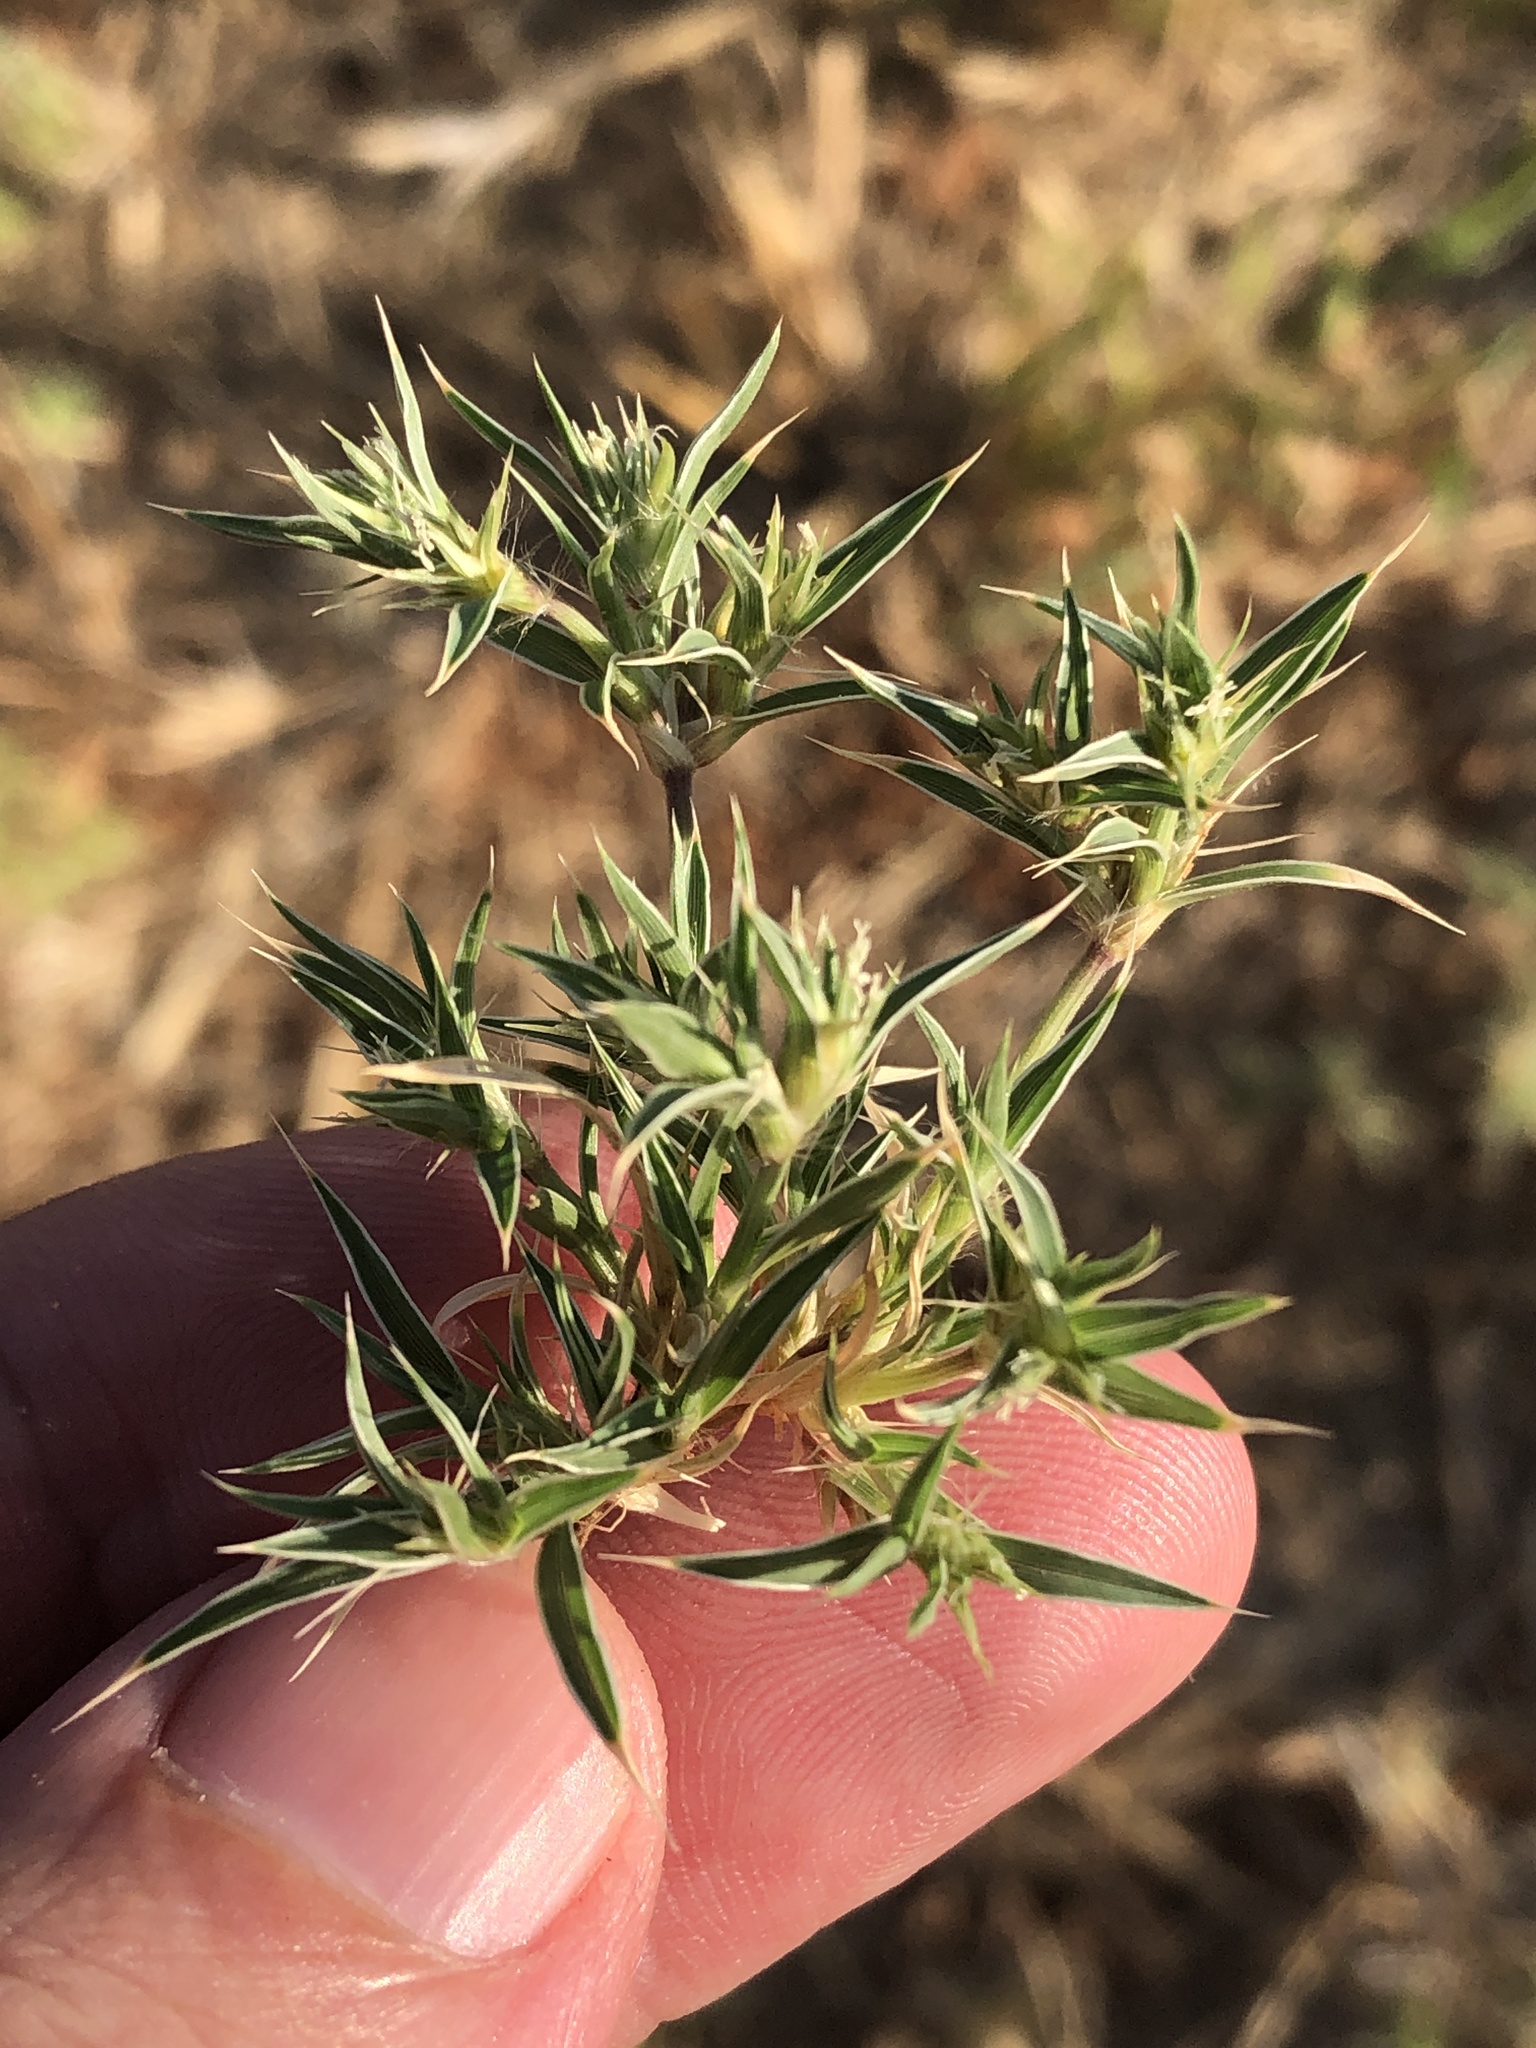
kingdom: Plantae
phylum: Tracheophyta
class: Liliopsida
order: Poales
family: Poaceae
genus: Munroa
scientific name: Munroa squarrosa
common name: False buffalo grass
